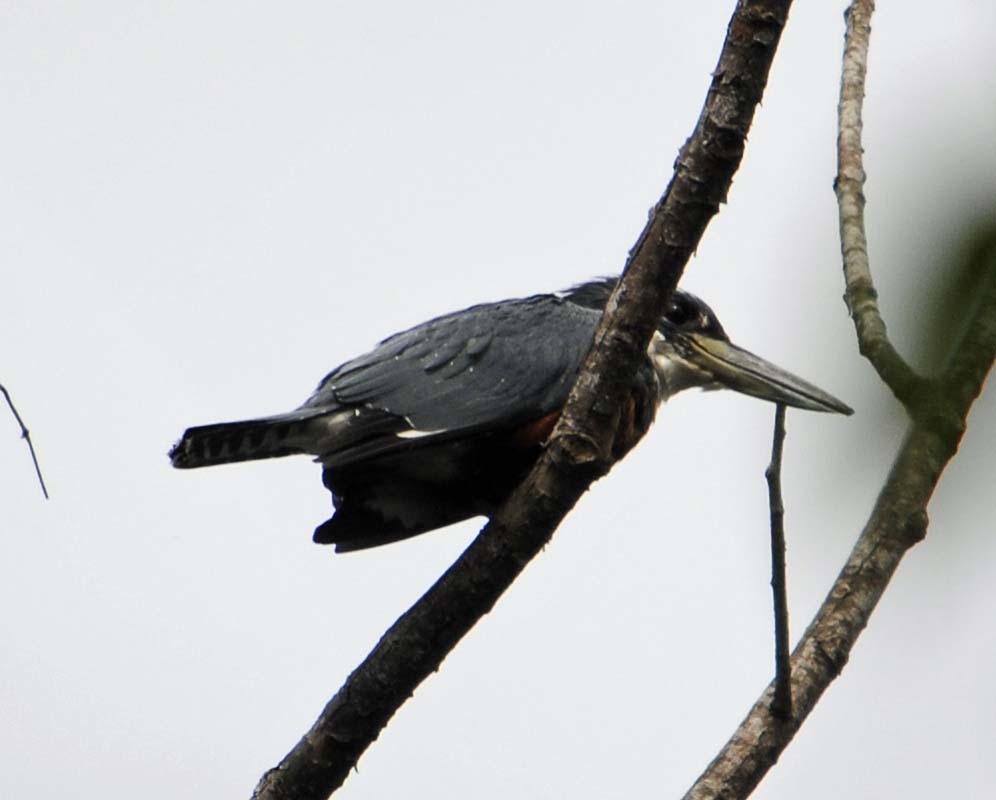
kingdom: Animalia
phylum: Chordata
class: Aves
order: Coraciiformes
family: Alcedinidae
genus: Megaceryle
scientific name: Megaceryle torquata
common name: Ringed kingfisher
